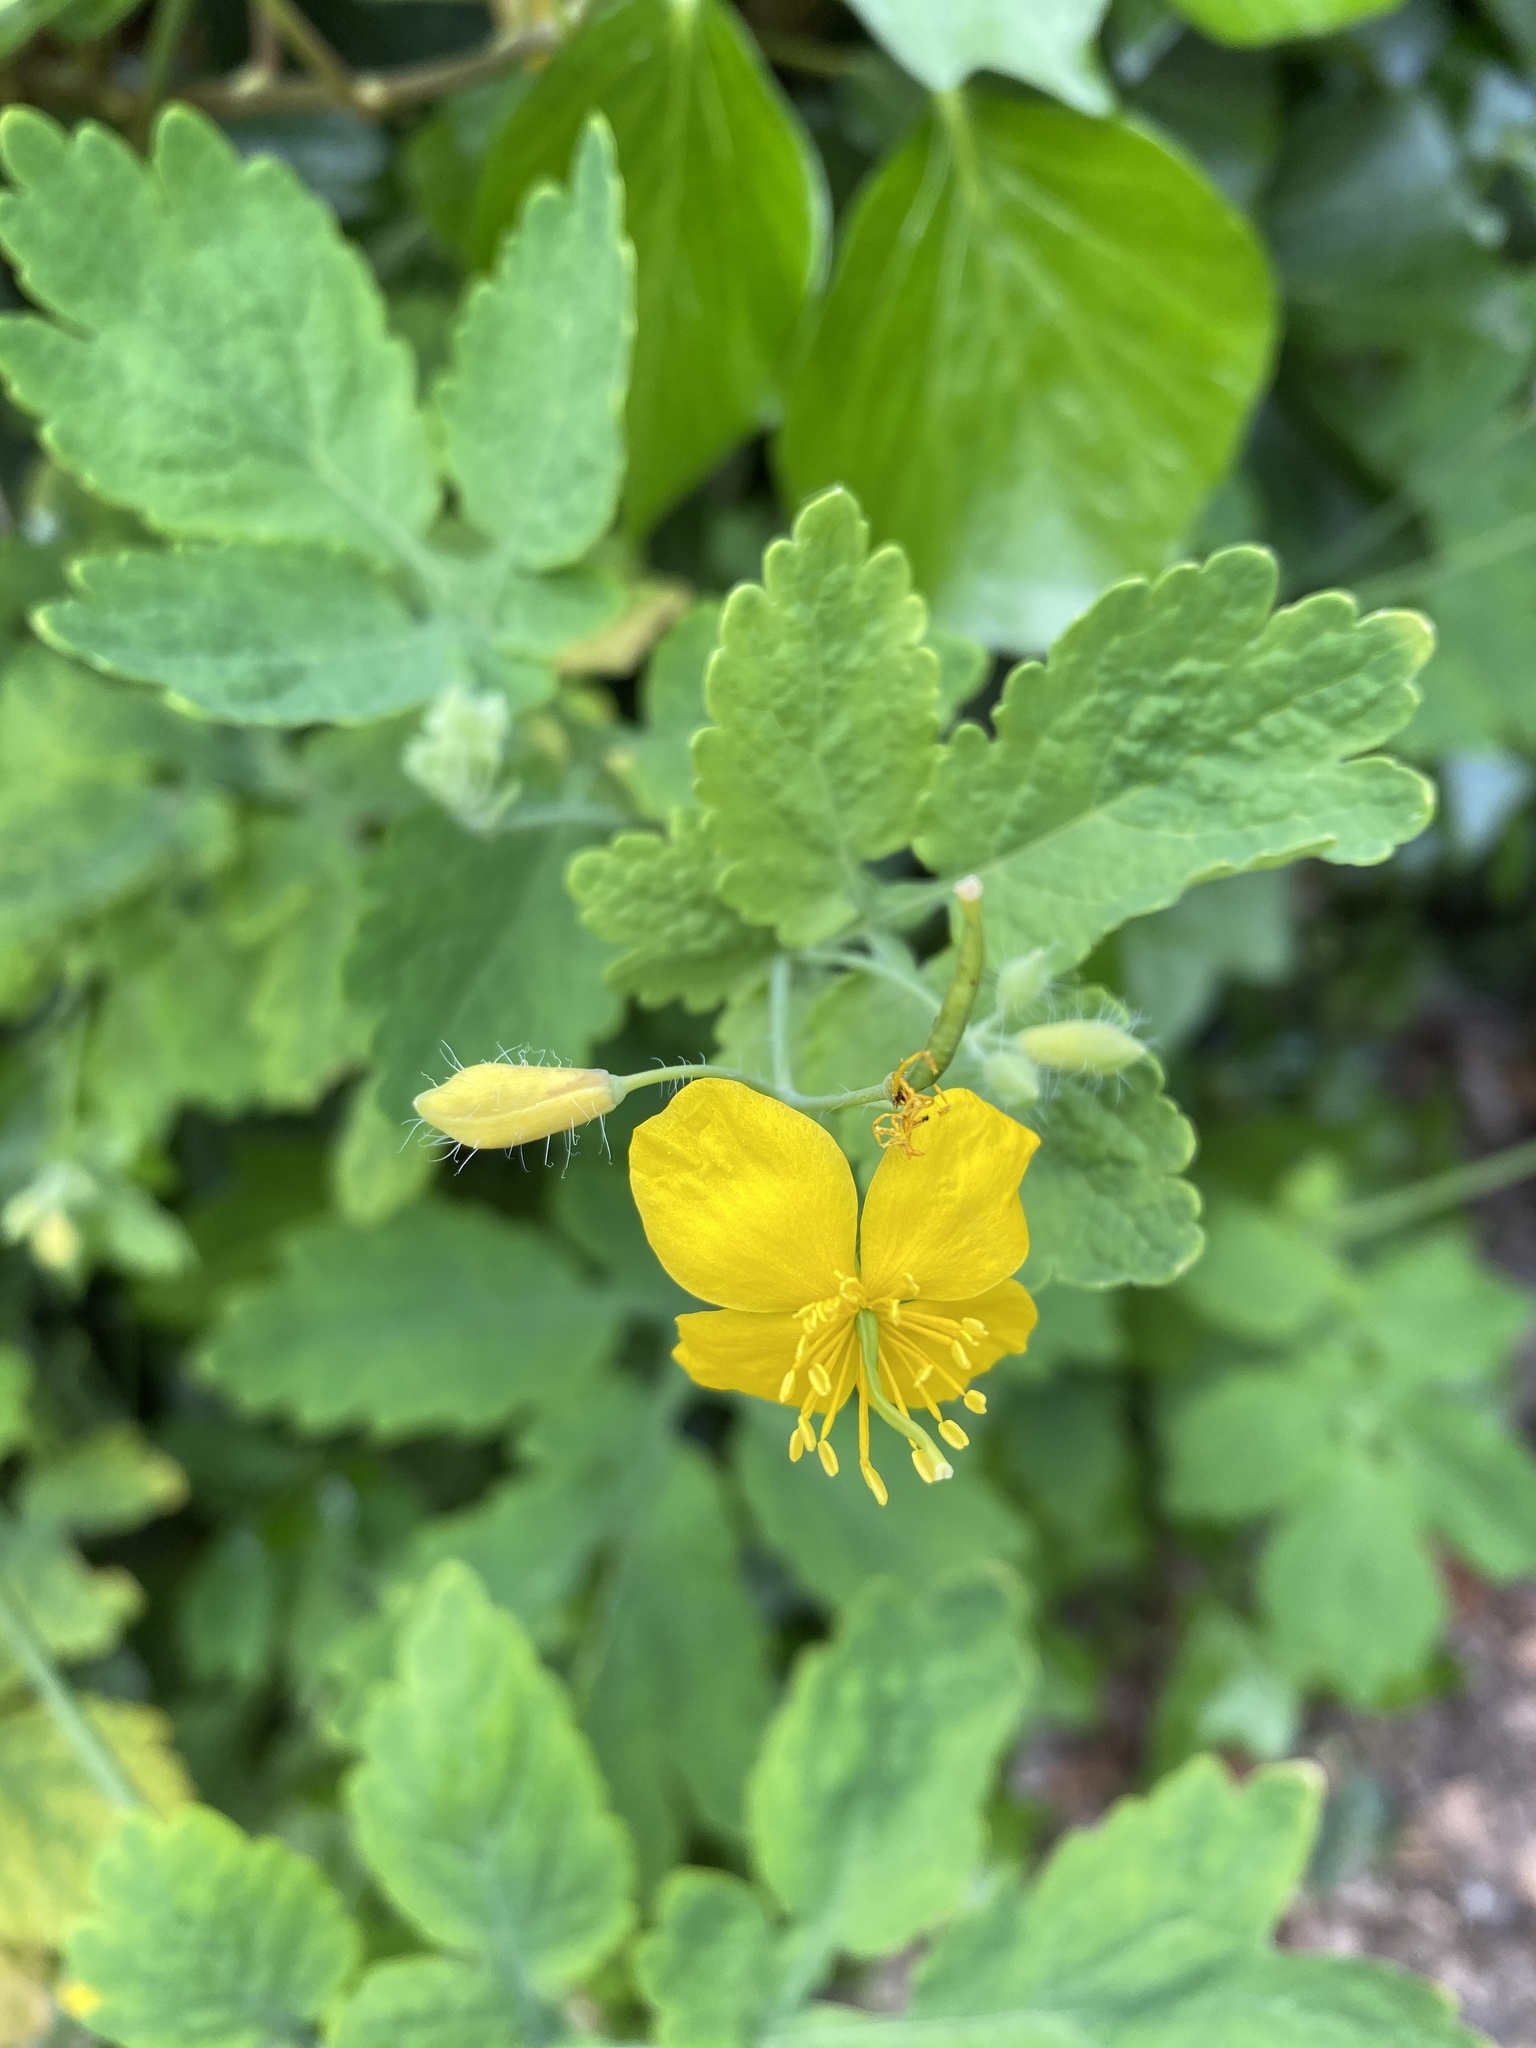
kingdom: Plantae
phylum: Tracheophyta
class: Magnoliopsida
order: Ranunculales
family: Papaveraceae
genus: Chelidonium
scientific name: Chelidonium majus
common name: Greater celandine
